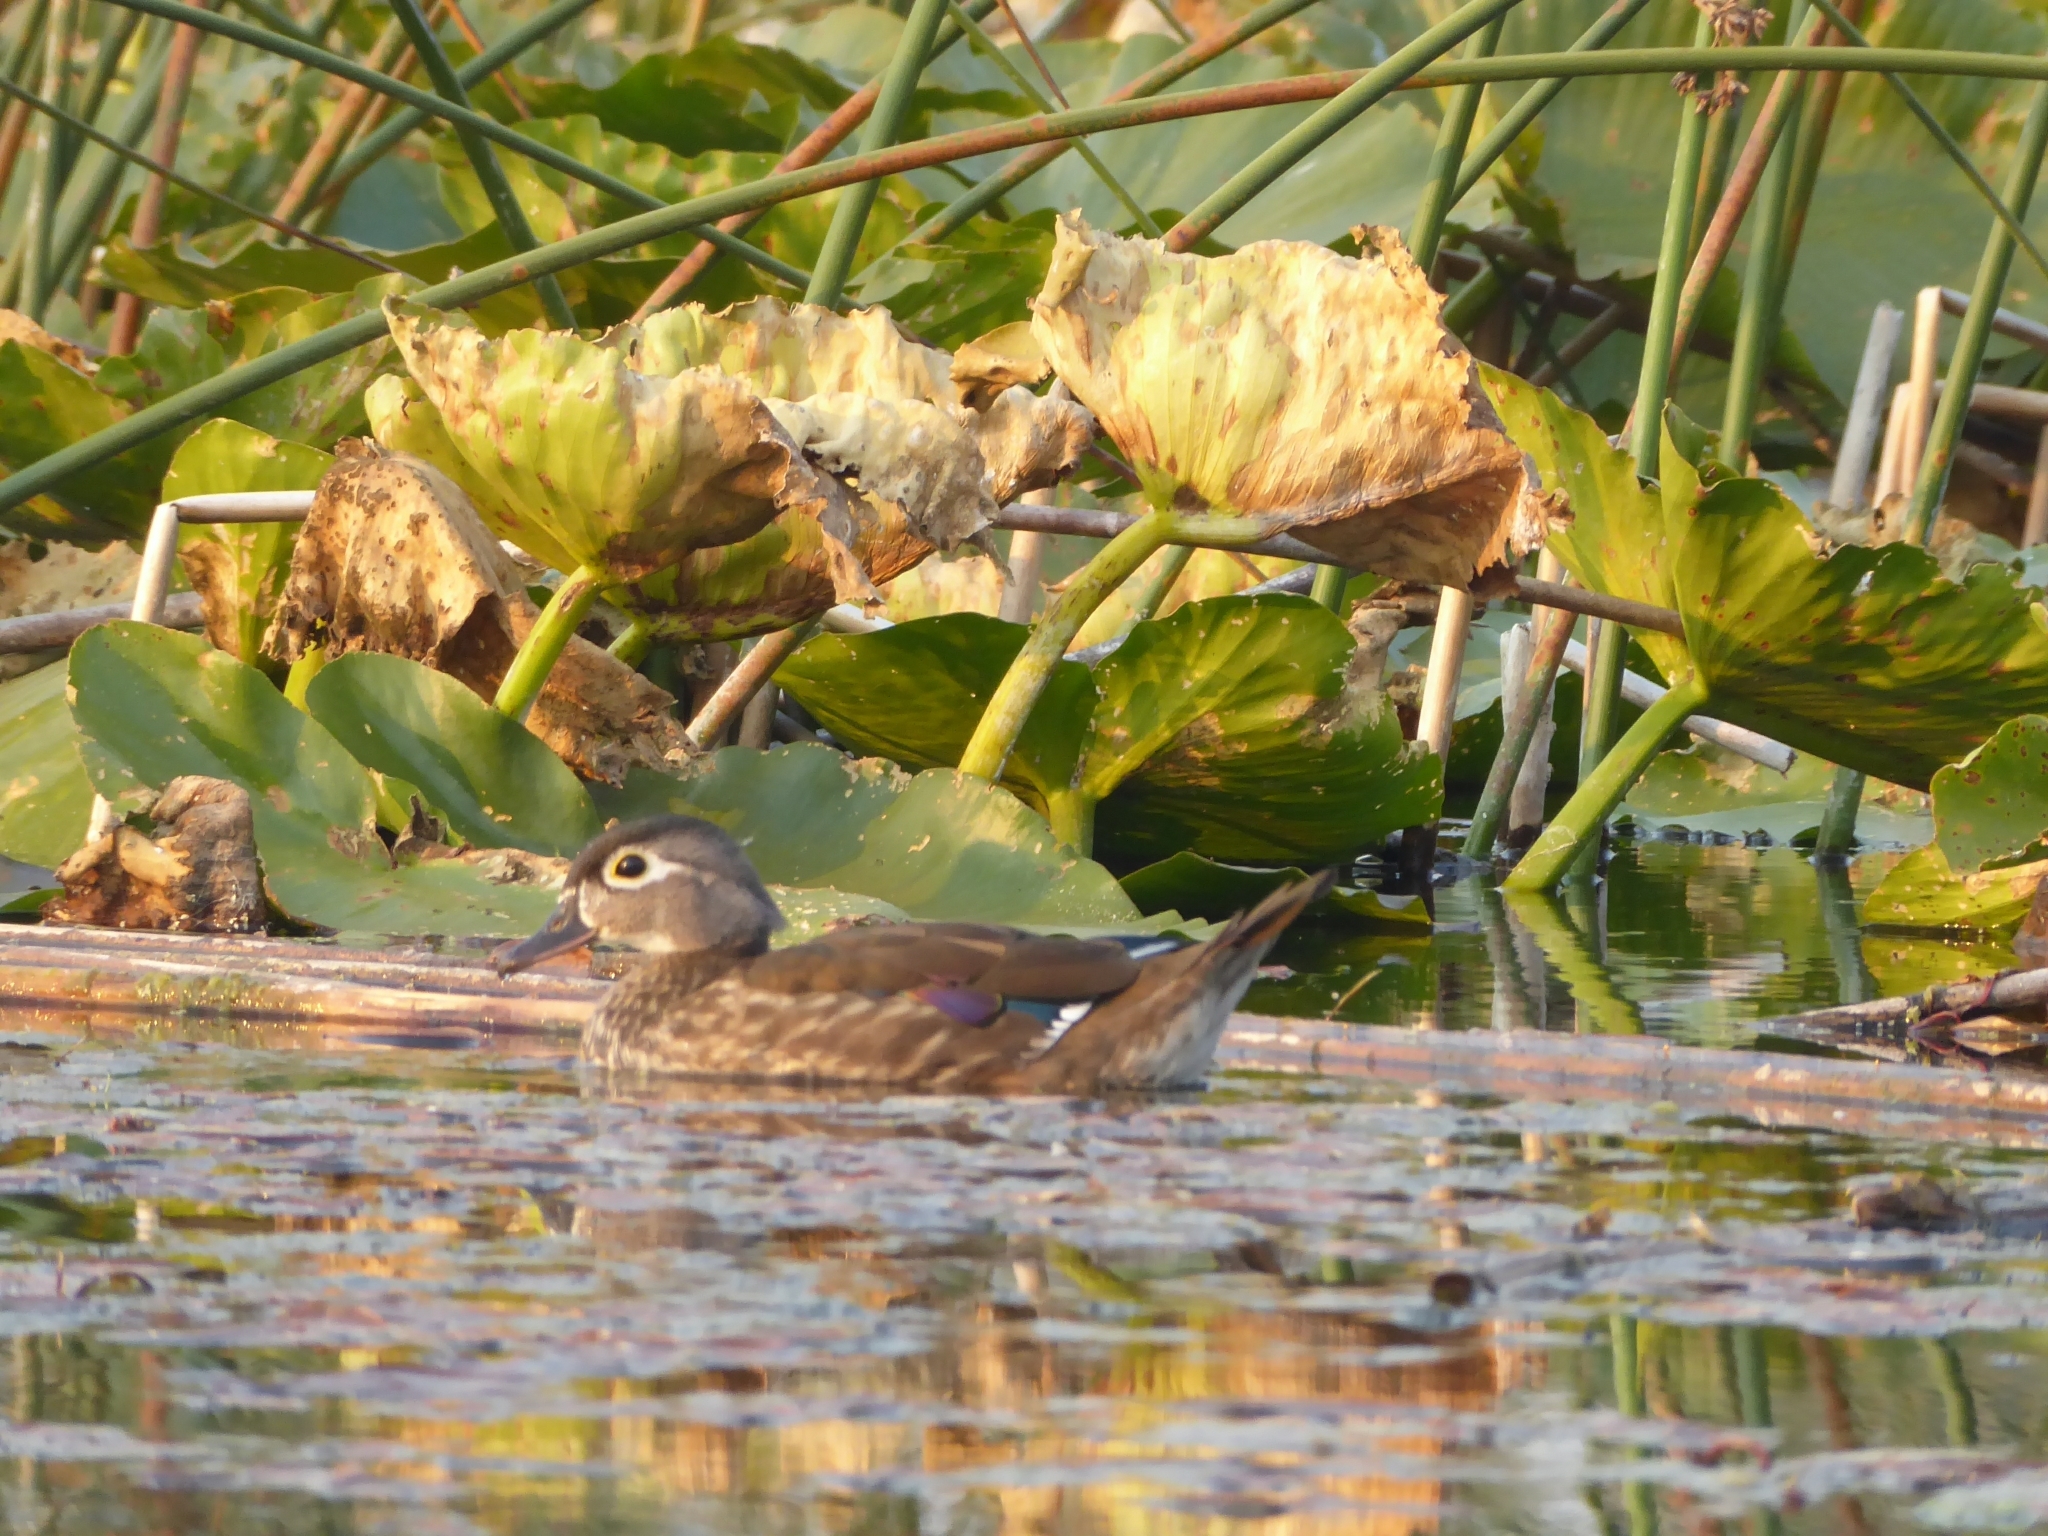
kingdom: Animalia
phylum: Chordata
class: Aves
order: Anseriformes
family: Anatidae
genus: Aix
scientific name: Aix sponsa
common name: Wood duck
